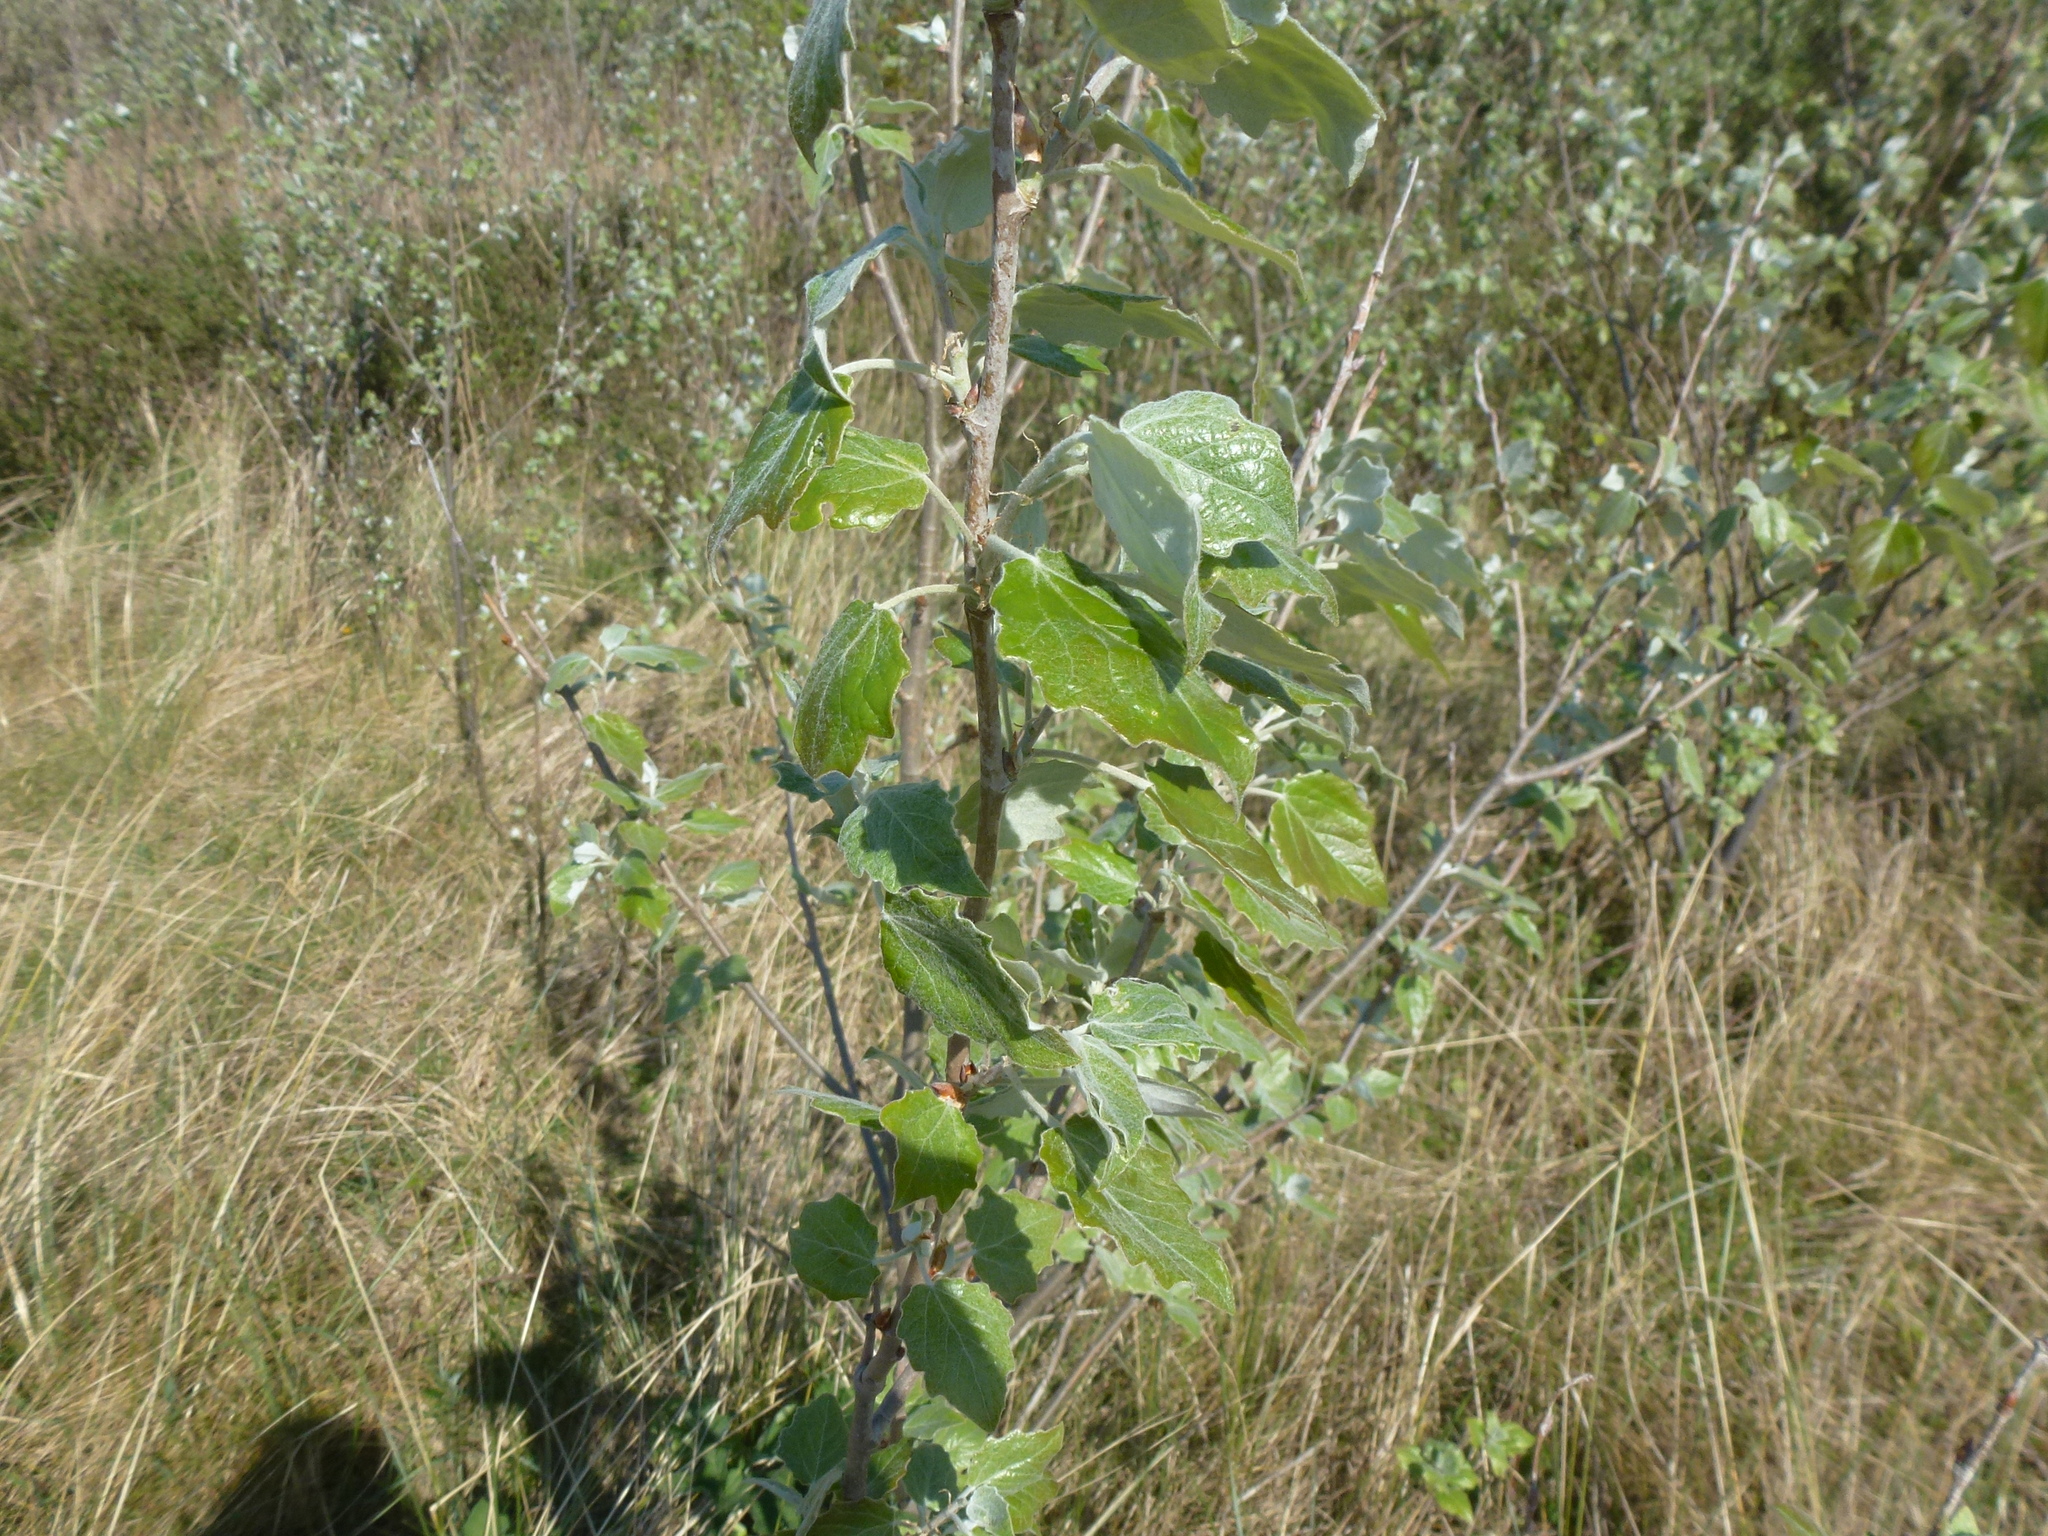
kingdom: Plantae
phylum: Tracheophyta
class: Magnoliopsida
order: Malpighiales
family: Salicaceae
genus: Populus
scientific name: Populus alba
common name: White poplar
